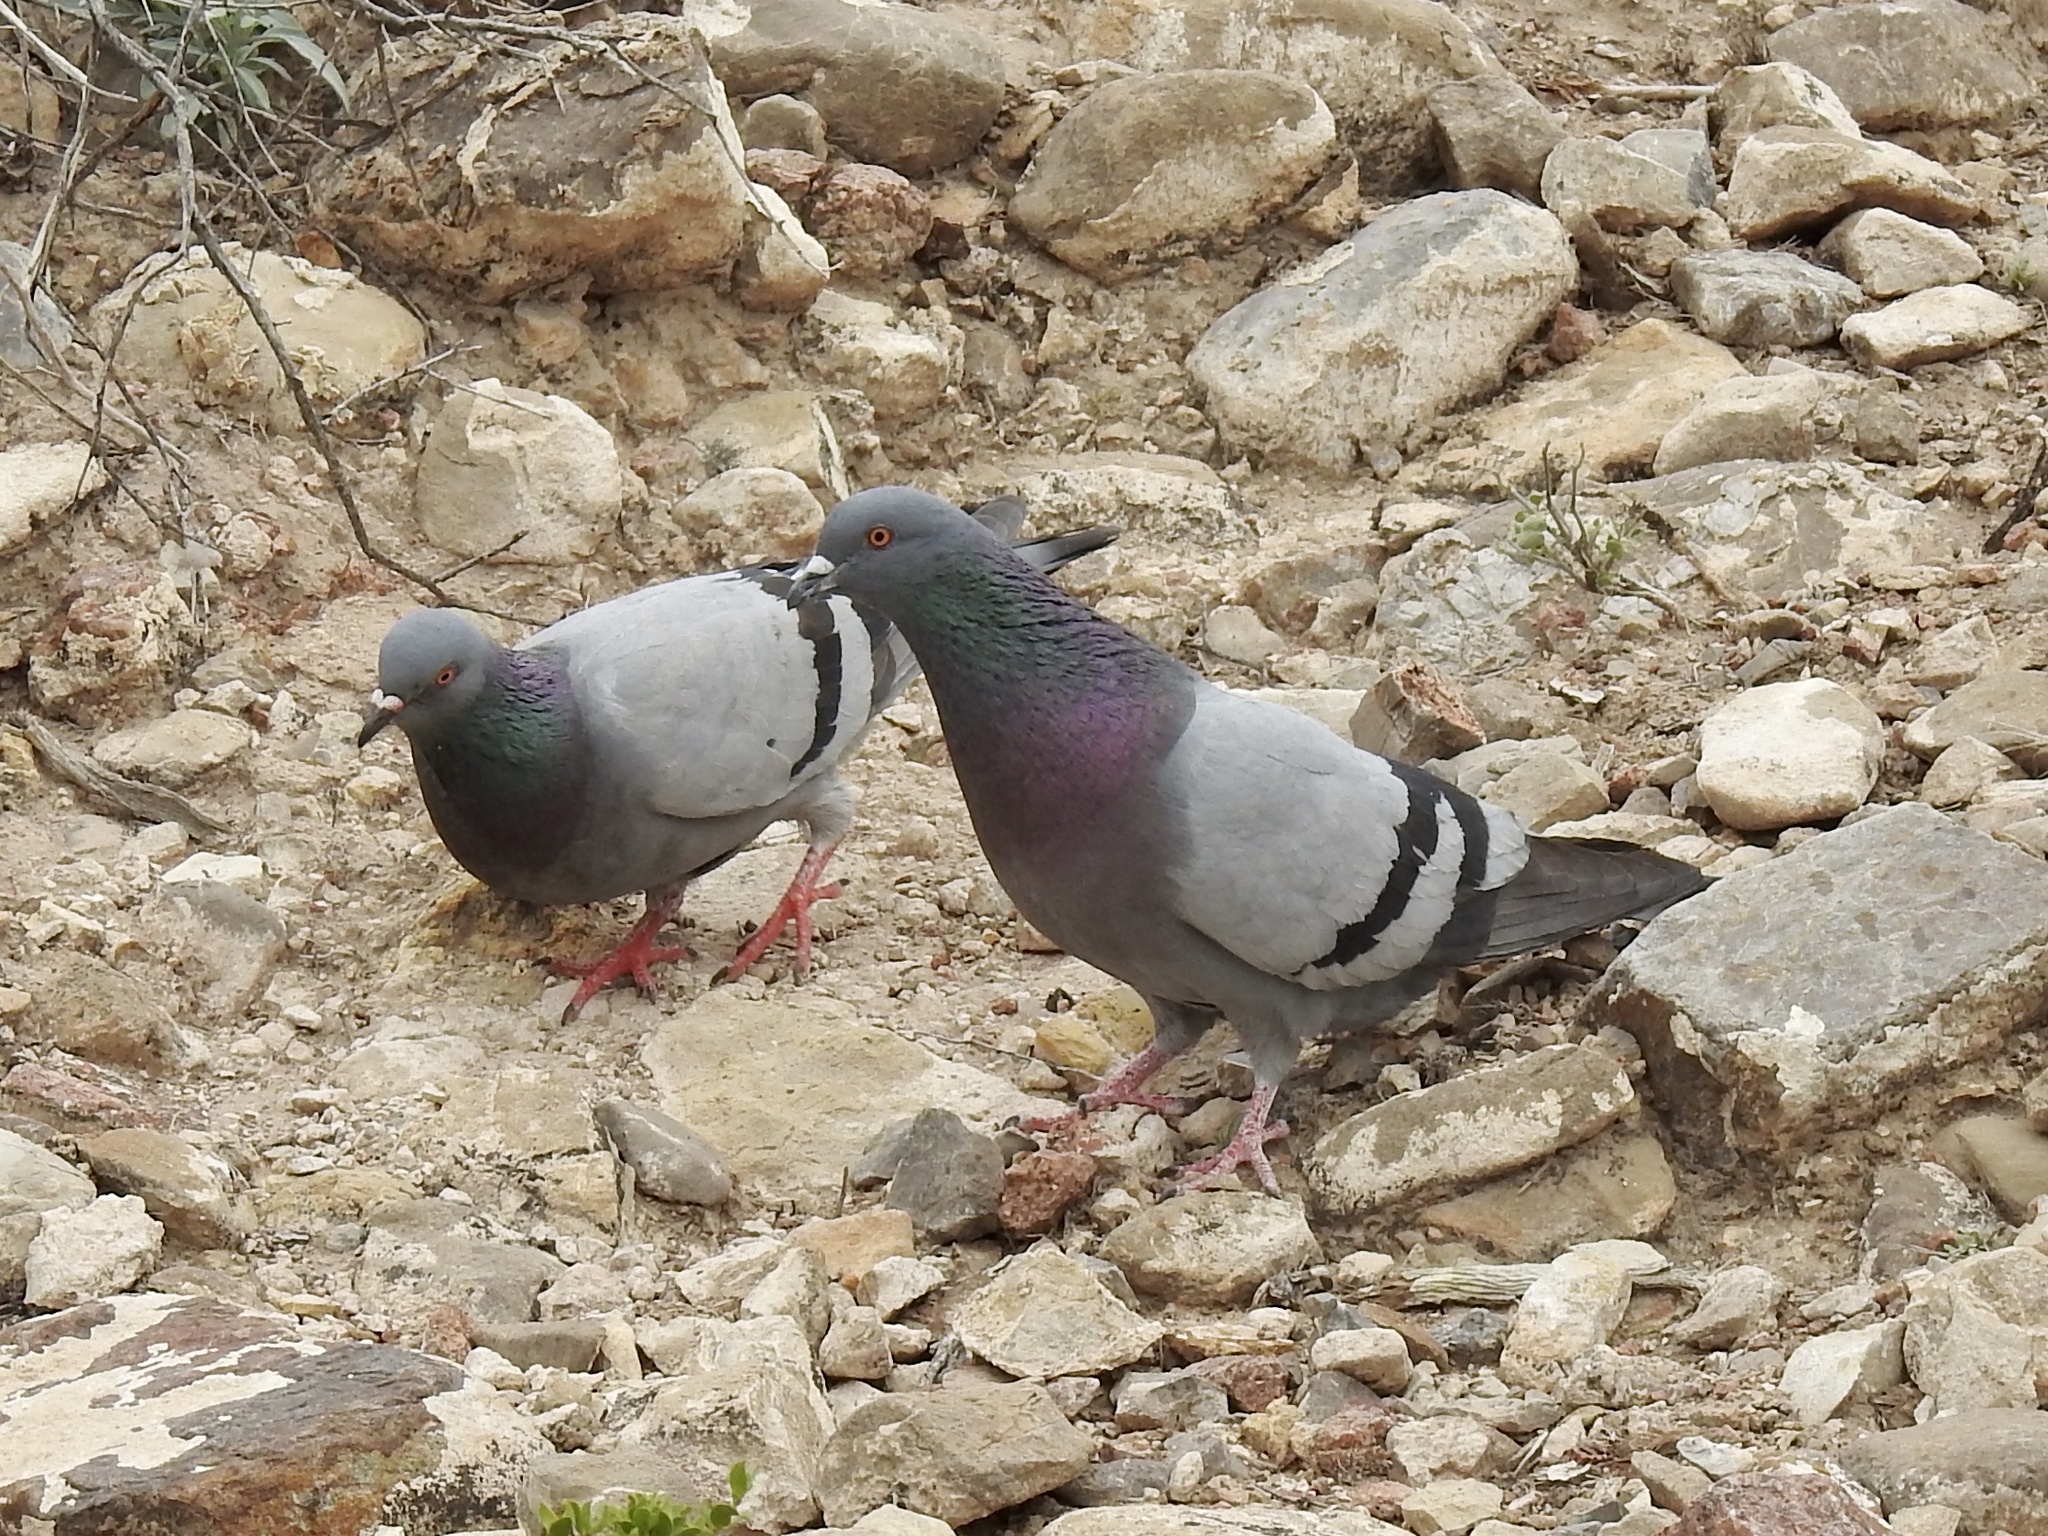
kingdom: Animalia
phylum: Chordata
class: Aves
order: Columbiformes
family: Columbidae
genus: Columba
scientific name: Columba livia
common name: Rock pigeon
